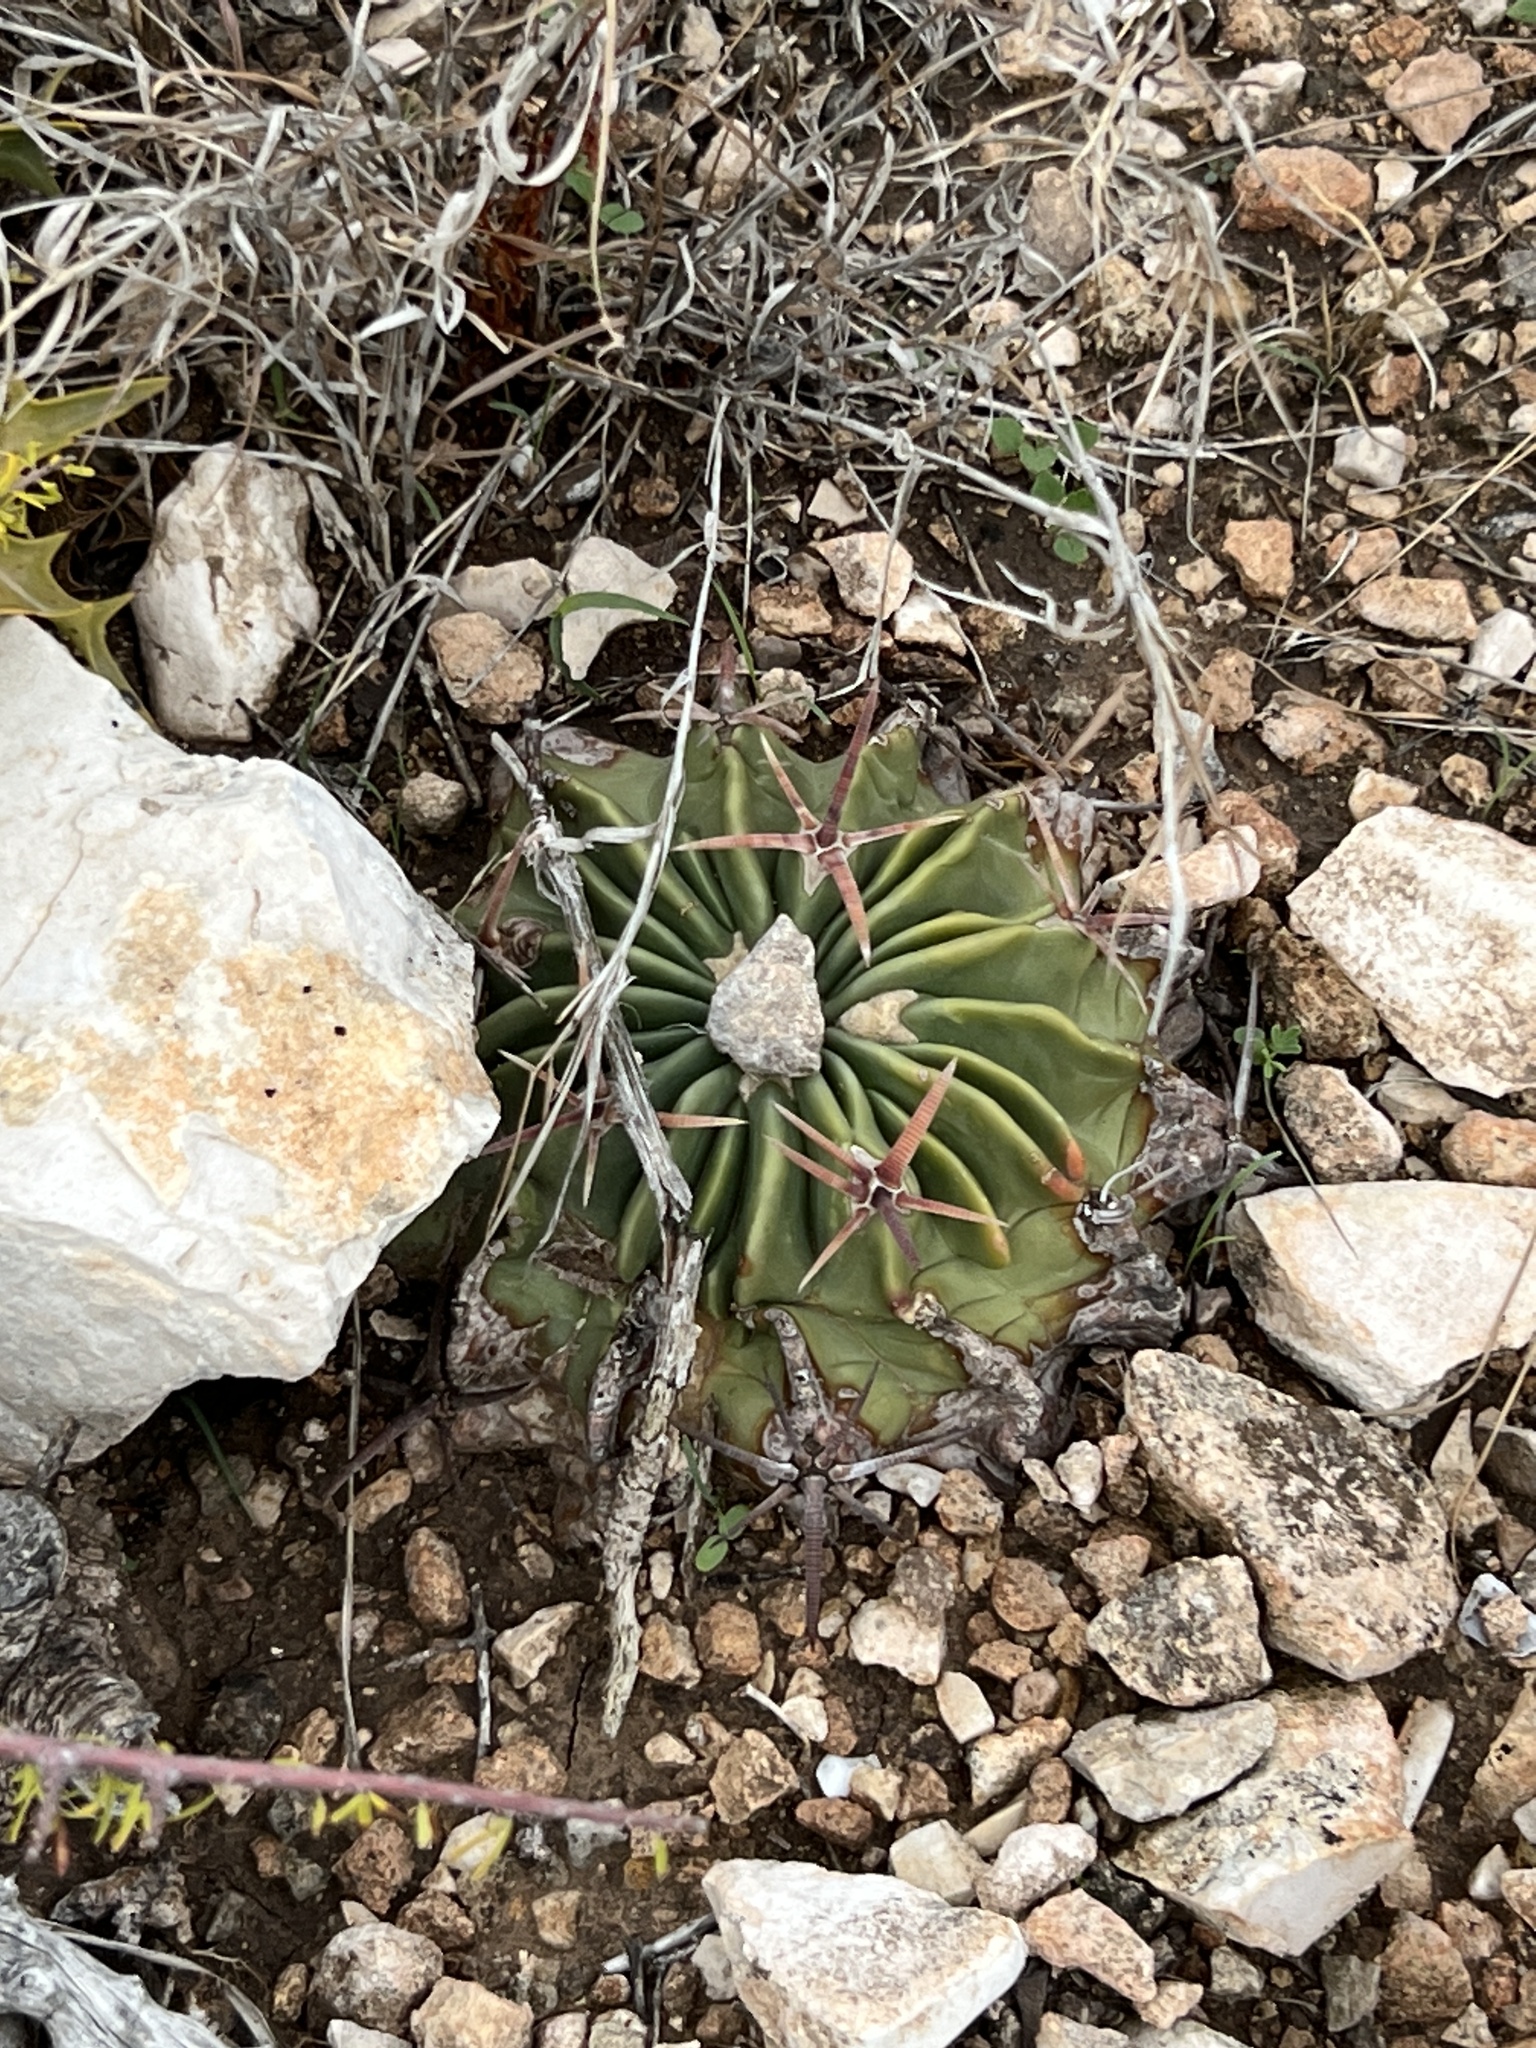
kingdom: Plantae
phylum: Tracheophyta
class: Magnoliopsida
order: Caryophyllales
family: Cactaceae
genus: Echinocactus
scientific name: Echinocactus texensis
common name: Devil's pincushion
